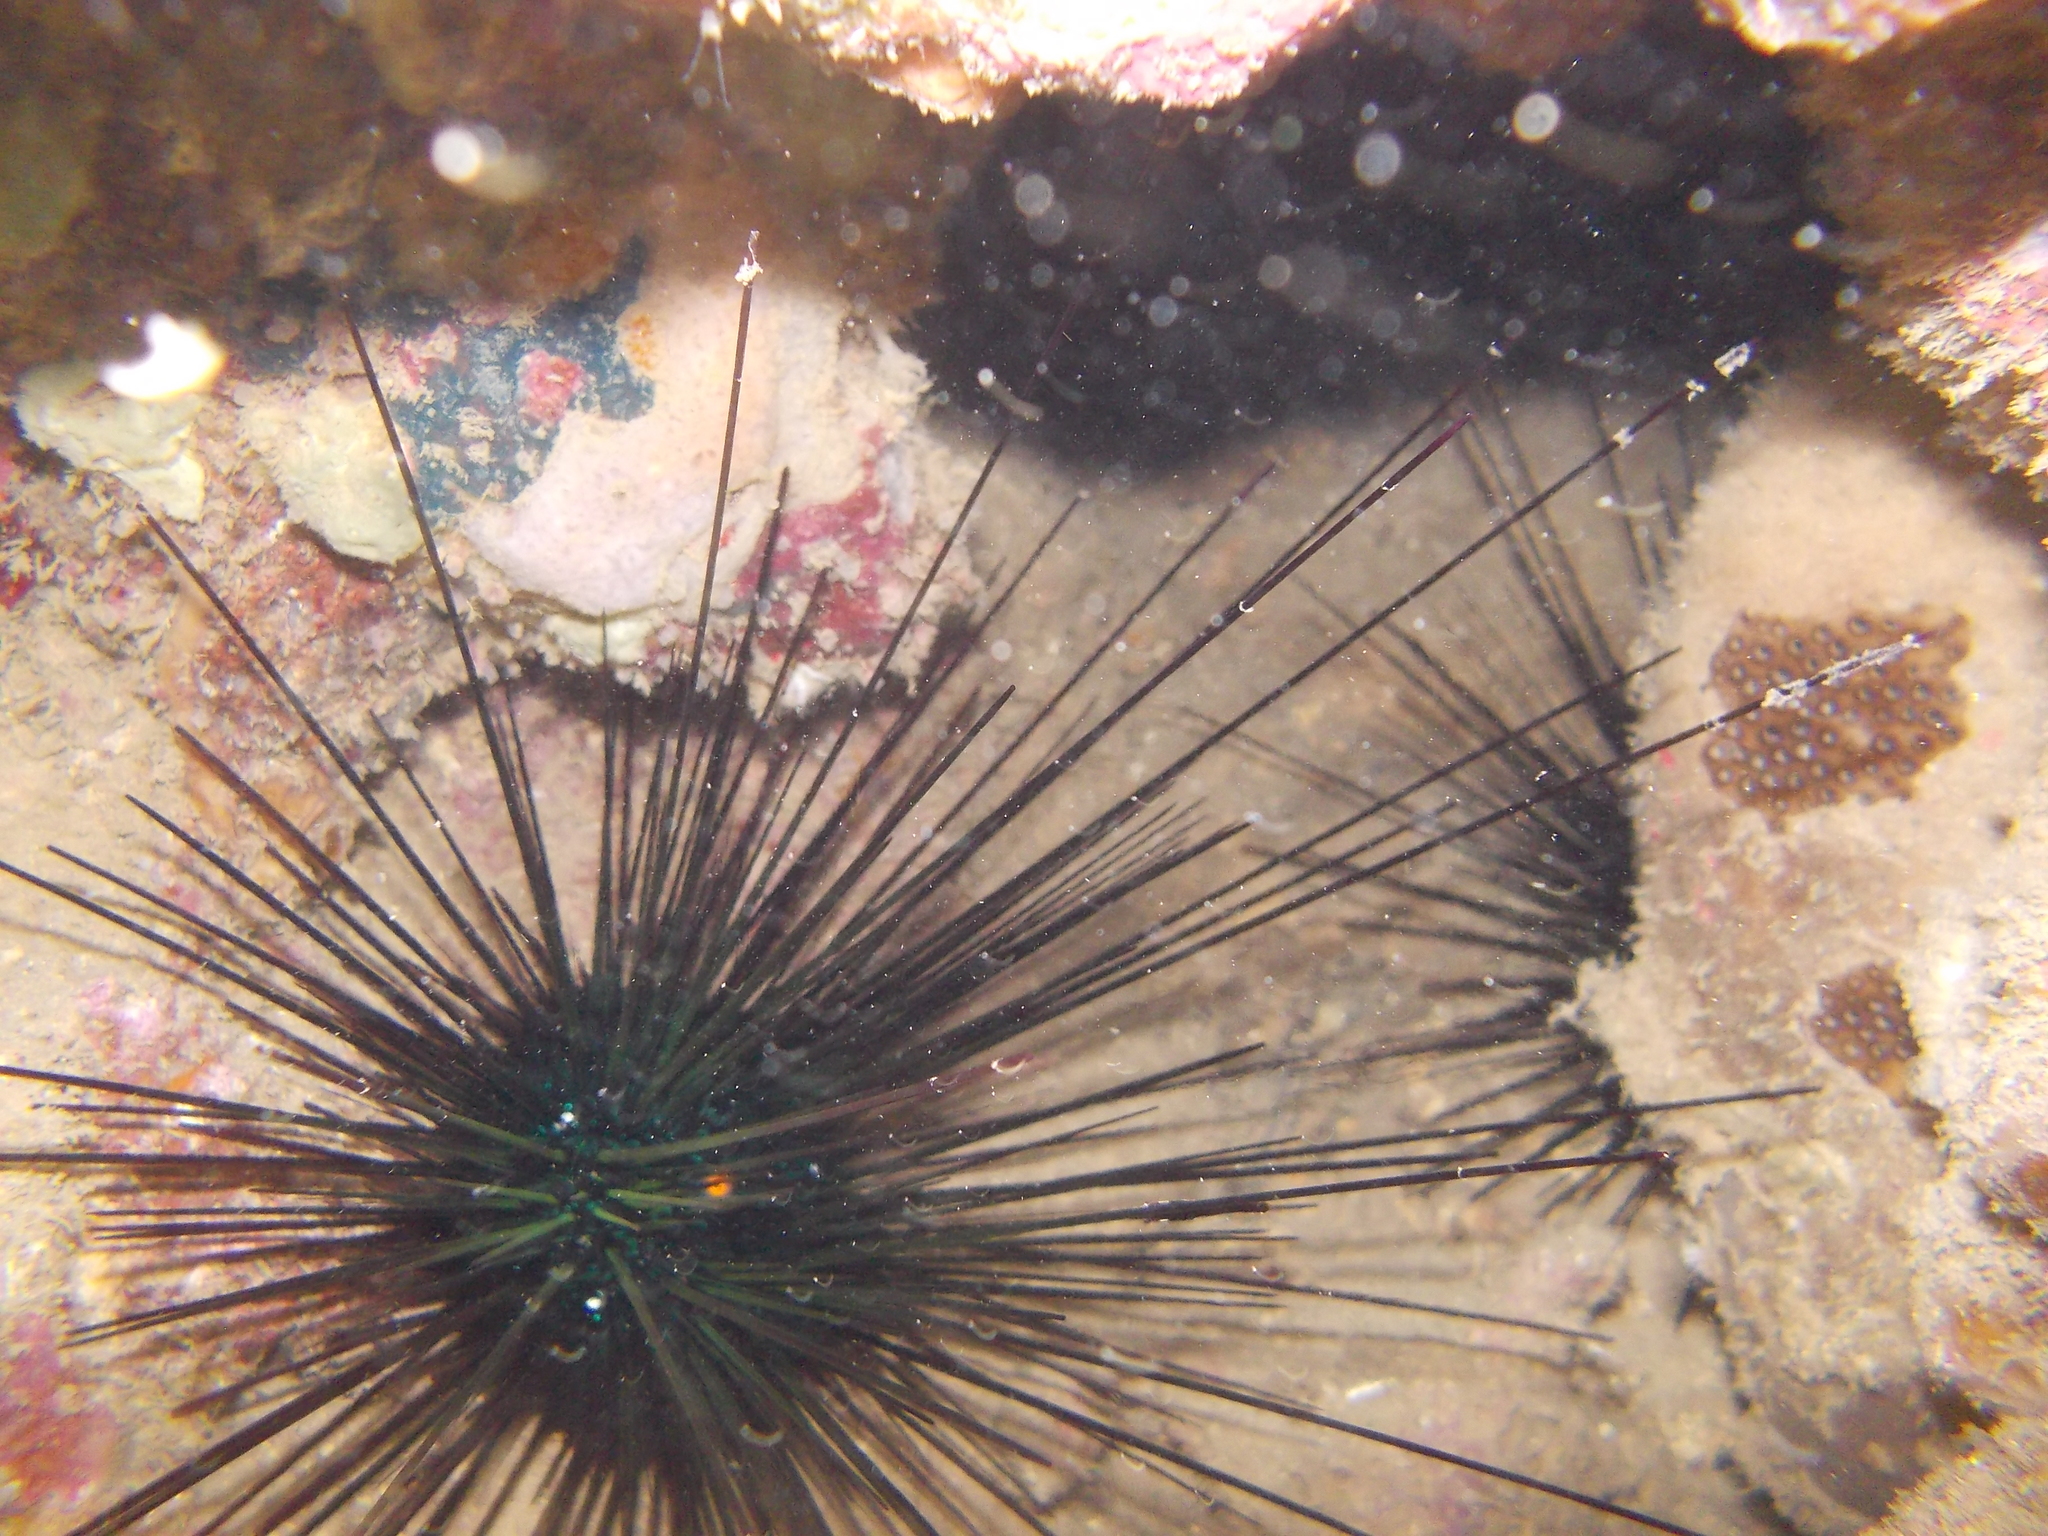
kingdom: Animalia
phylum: Echinodermata
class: Echinoidea
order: Diadematoida
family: Diadematidae
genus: Diadema
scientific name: Diadema setosum
